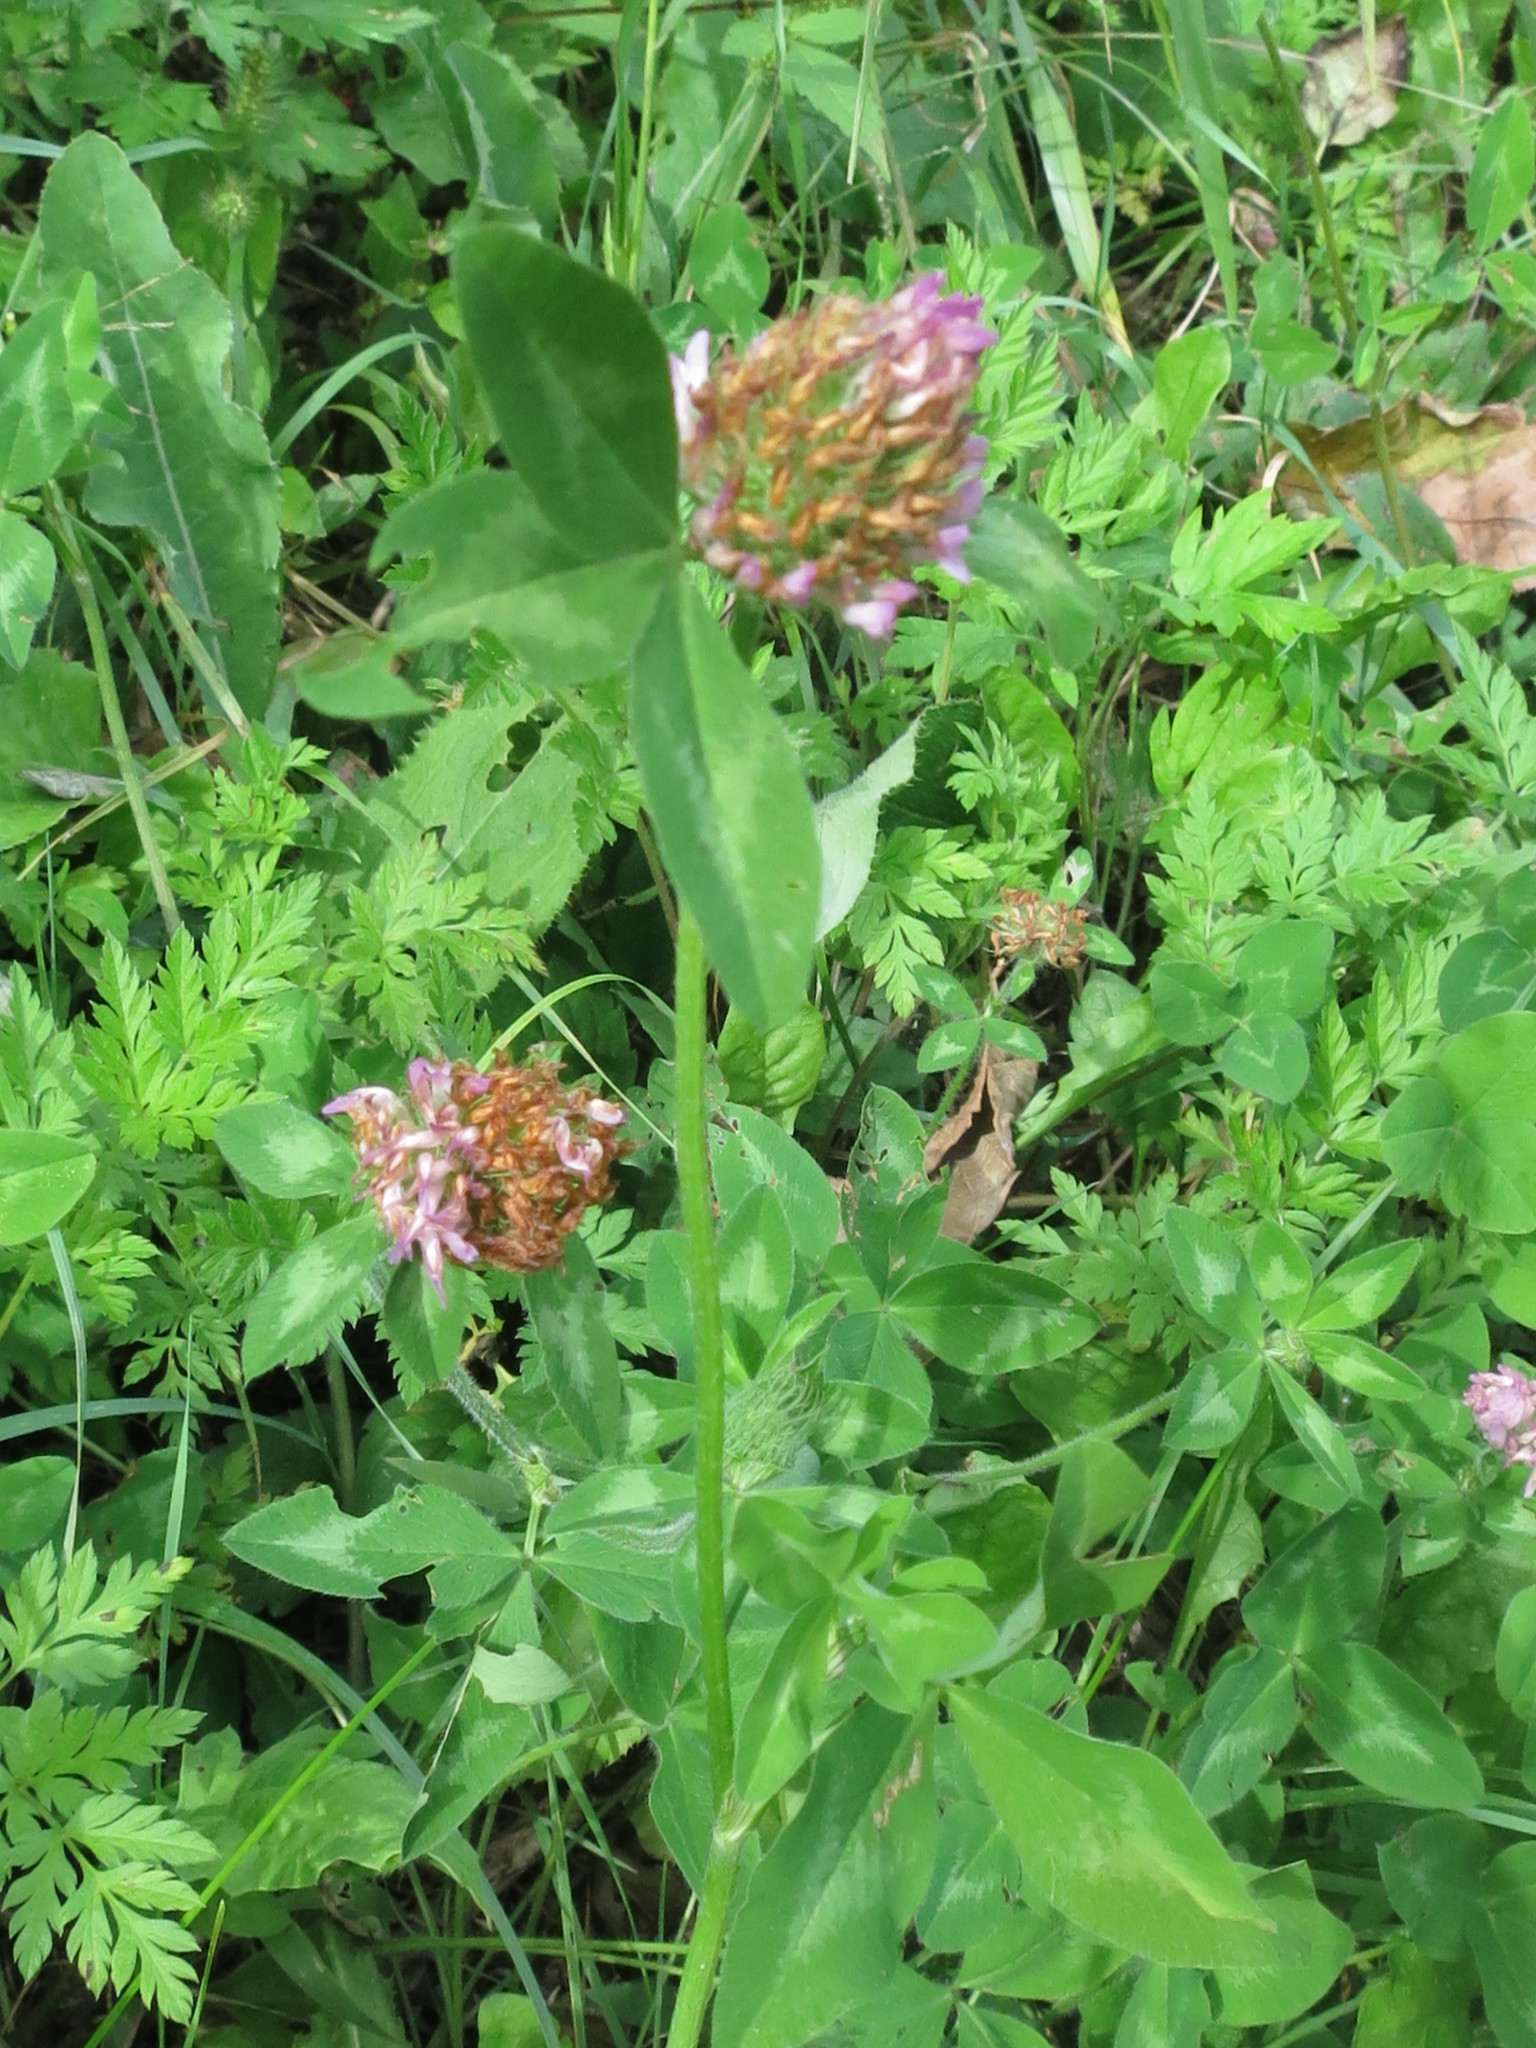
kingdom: Plantae
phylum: Tracheophyta
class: Magnoliopsida
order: Fabales
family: Fabaceae
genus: Trifolium
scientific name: Trifolium pratense
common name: Red clover
